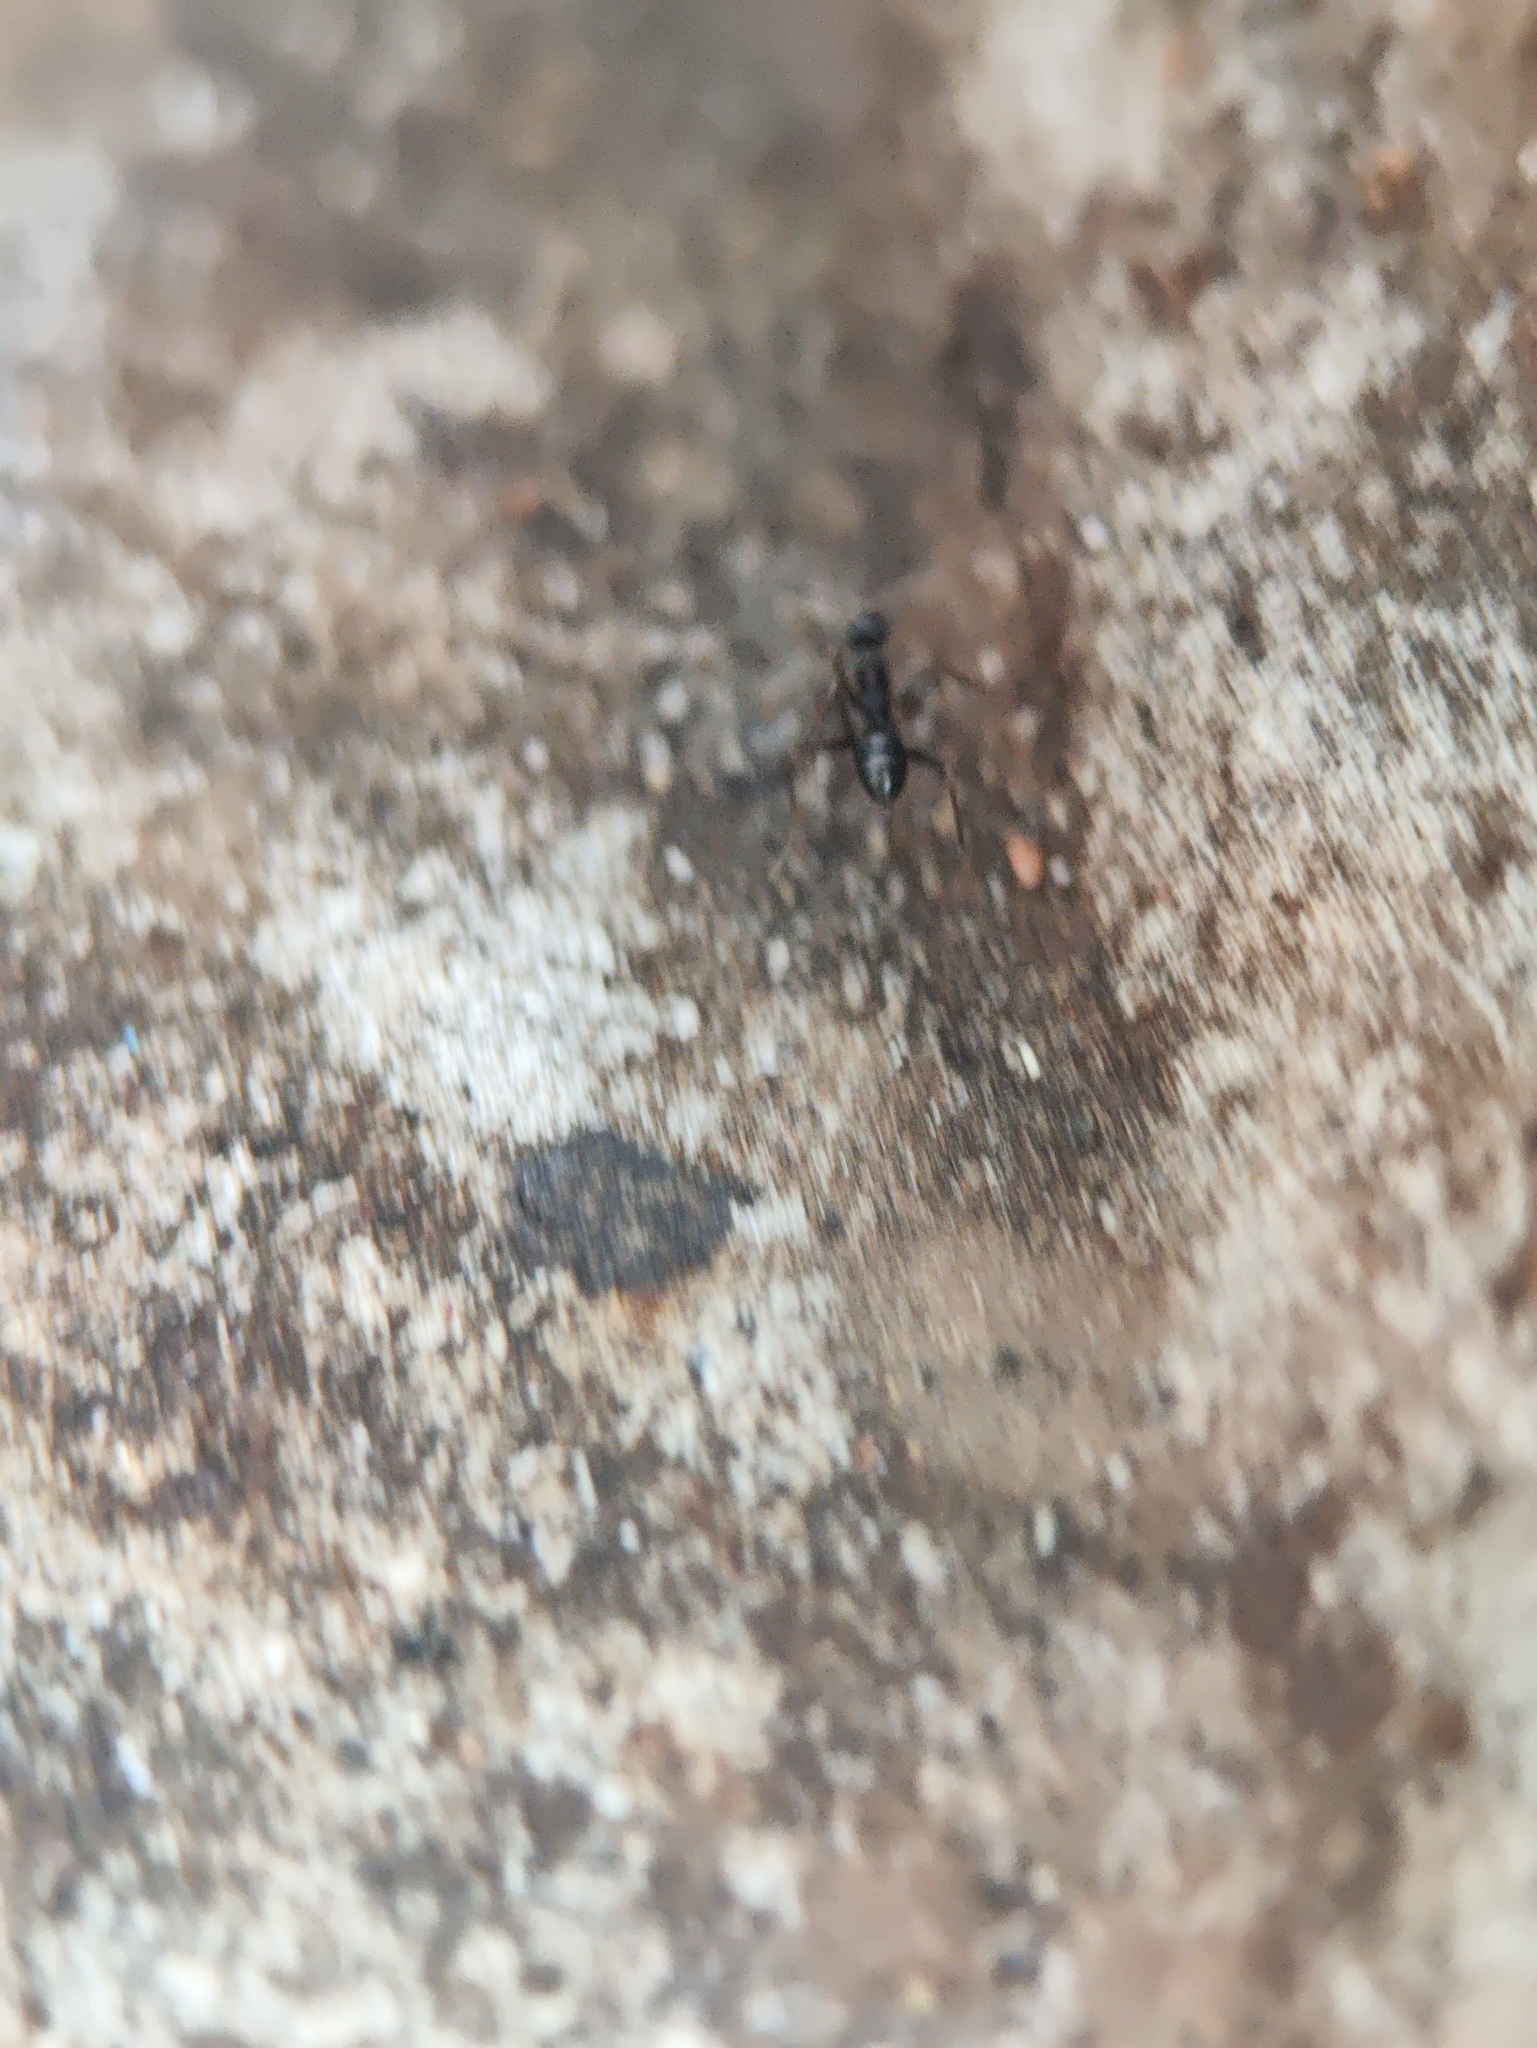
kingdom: Animalia
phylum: Arthropoda
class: Insecta
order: Hymenoptera
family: Formicidae
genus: Paratrechina
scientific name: Paratrechina longicornis
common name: Longhorned crazy ant
